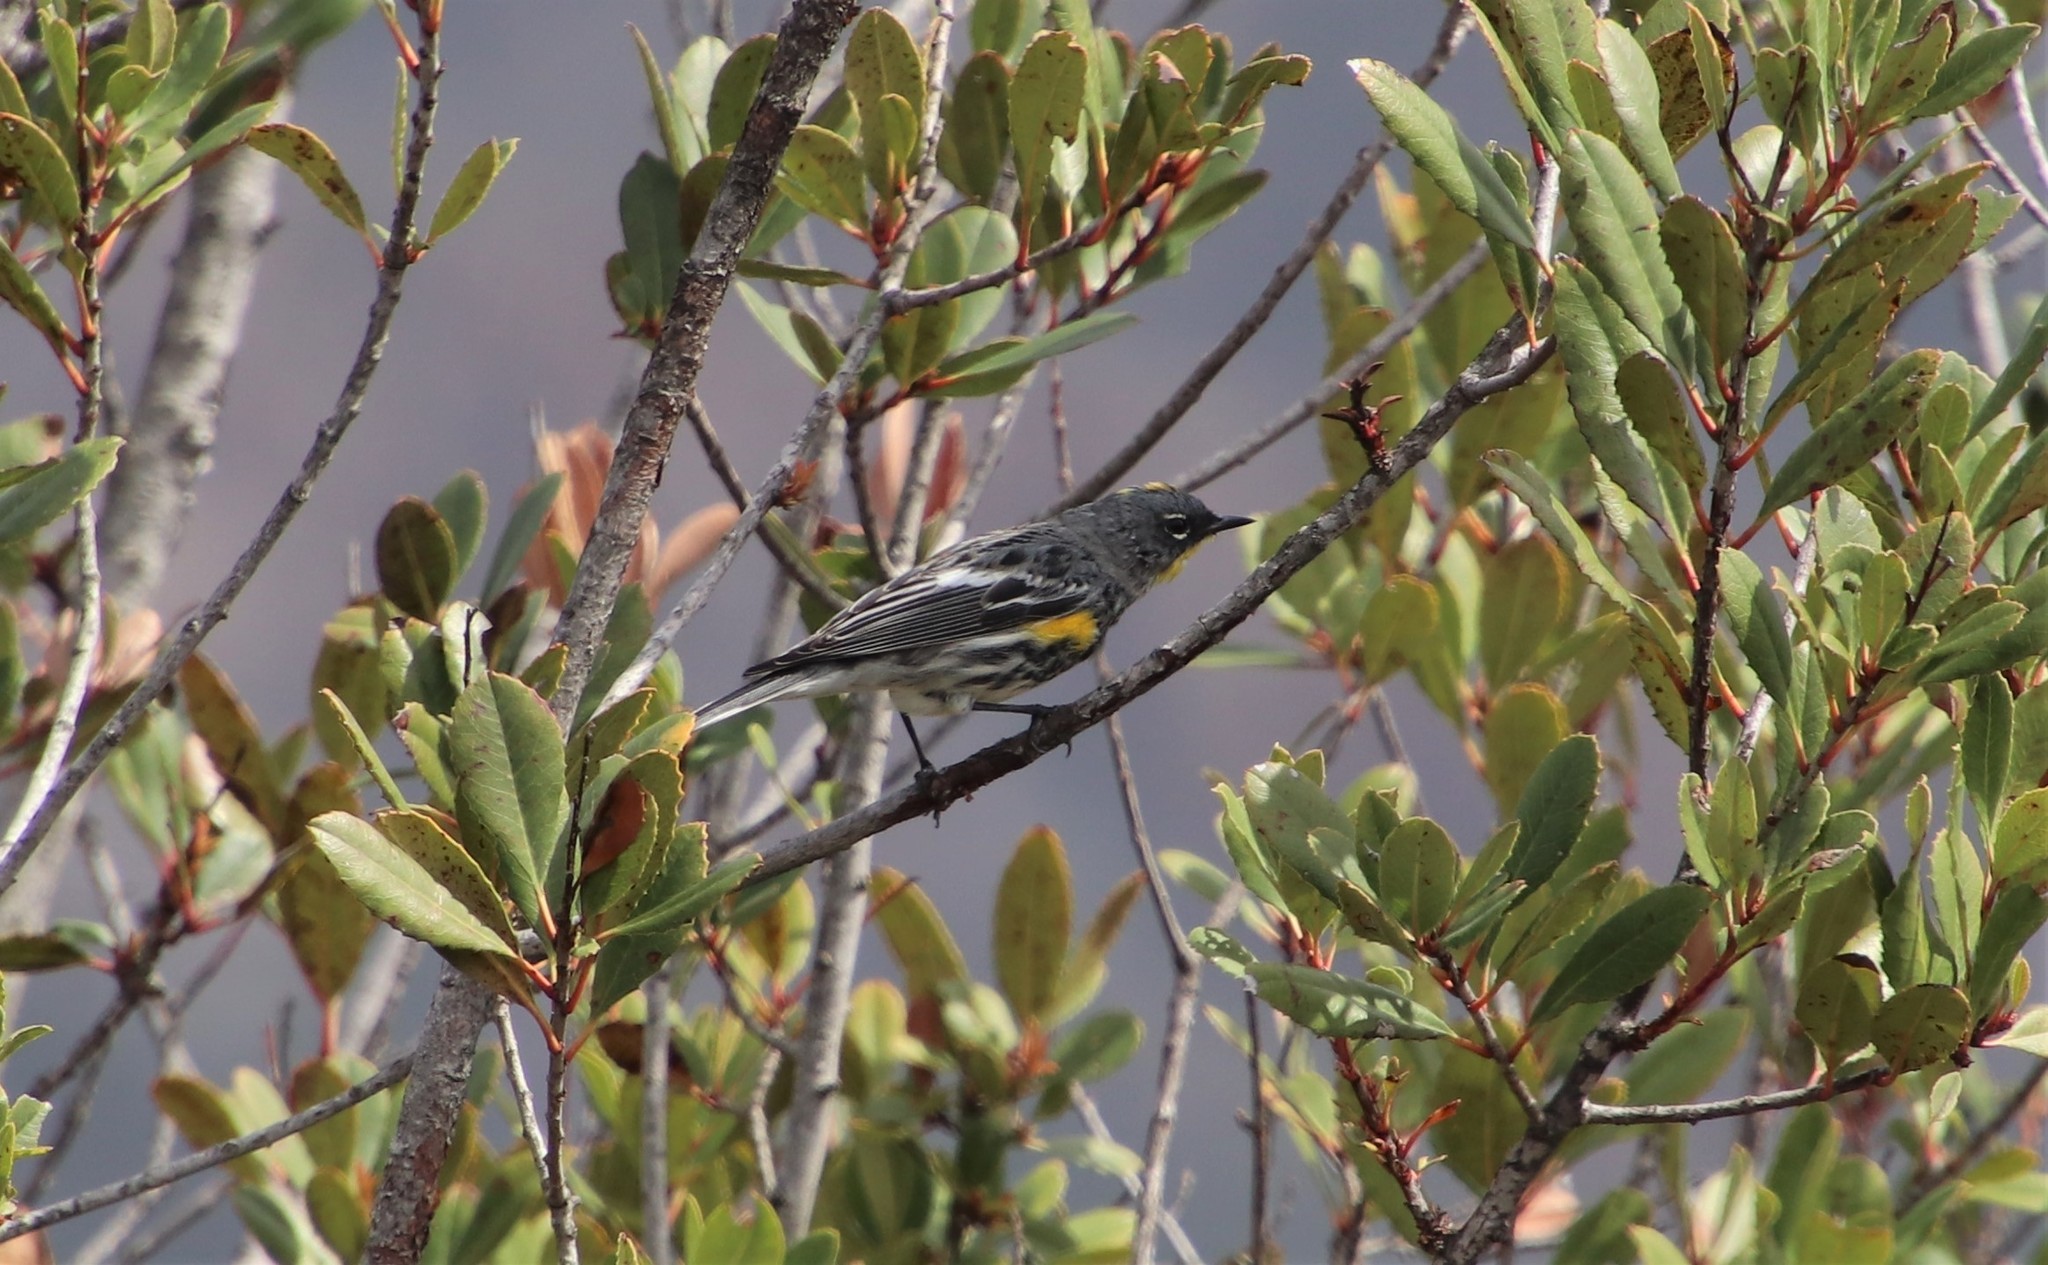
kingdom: Animalia
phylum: Chordata
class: Aves
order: Passeriformes
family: Parulidae
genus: Setophaga
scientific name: Setophaga auduboni
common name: Audubon's warbler
